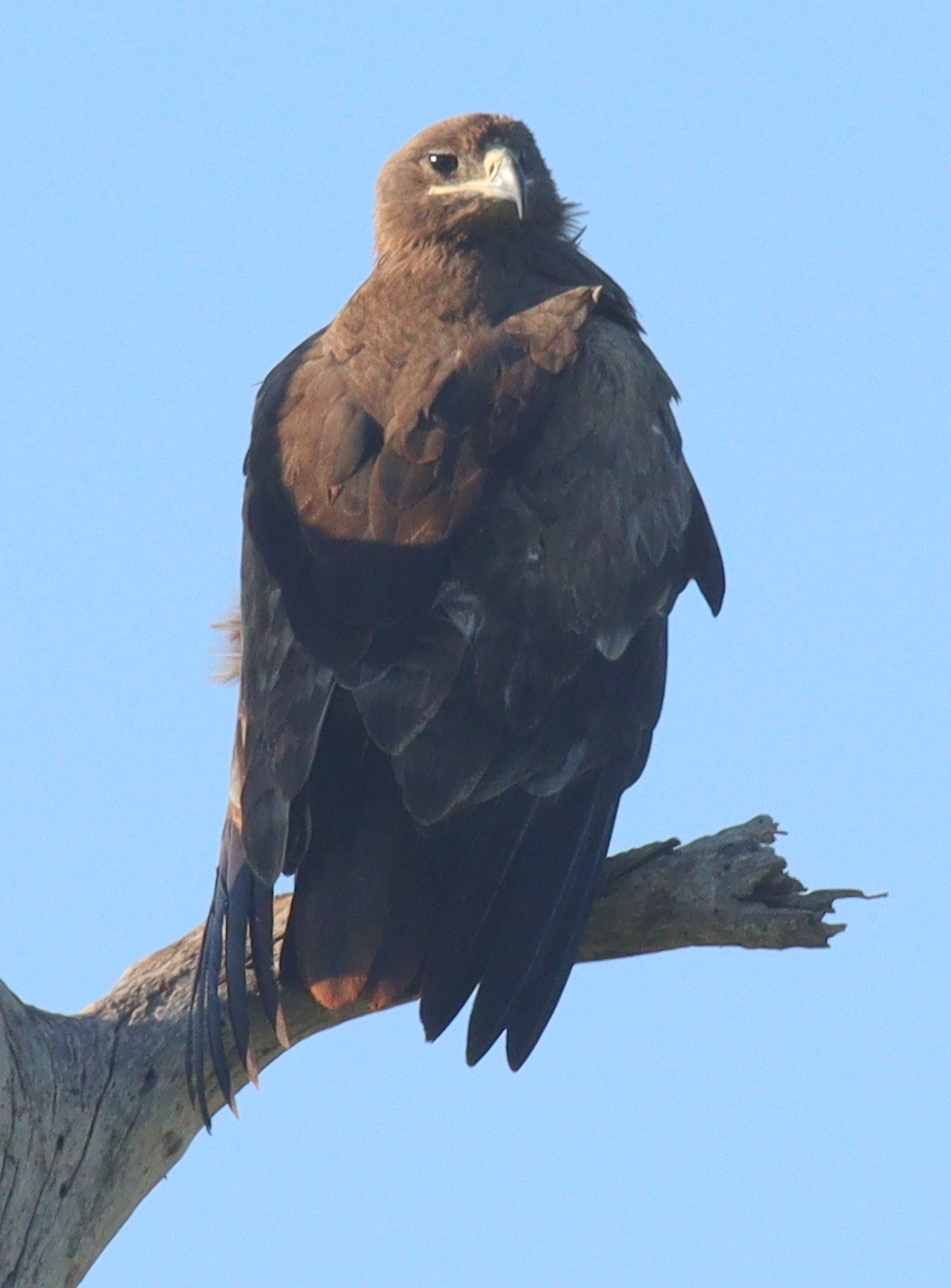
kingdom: Animalia
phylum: Chordata
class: Aves
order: Accipitriformes
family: Accipitridae
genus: Aquila
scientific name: Aquila nipalensis
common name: Steppe eagle
